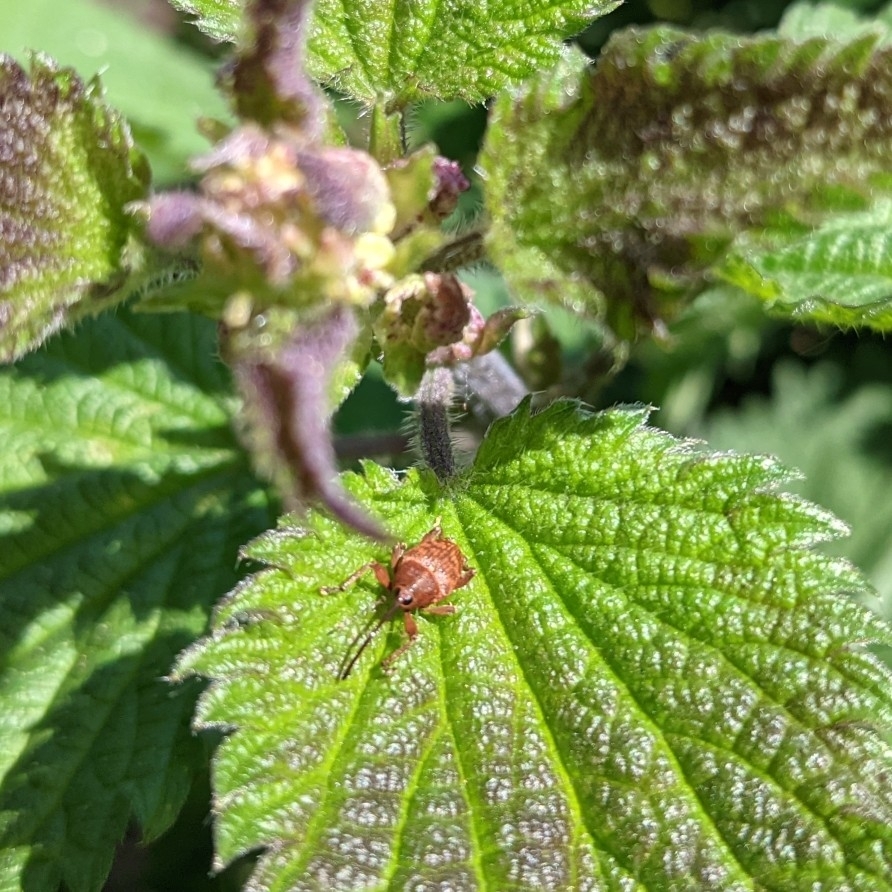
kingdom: Animalia
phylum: Arthropoda
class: Insecta
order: Coleoptera
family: Curculionidae
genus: Curculio
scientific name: Curculio glandium
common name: Acorn weevil
